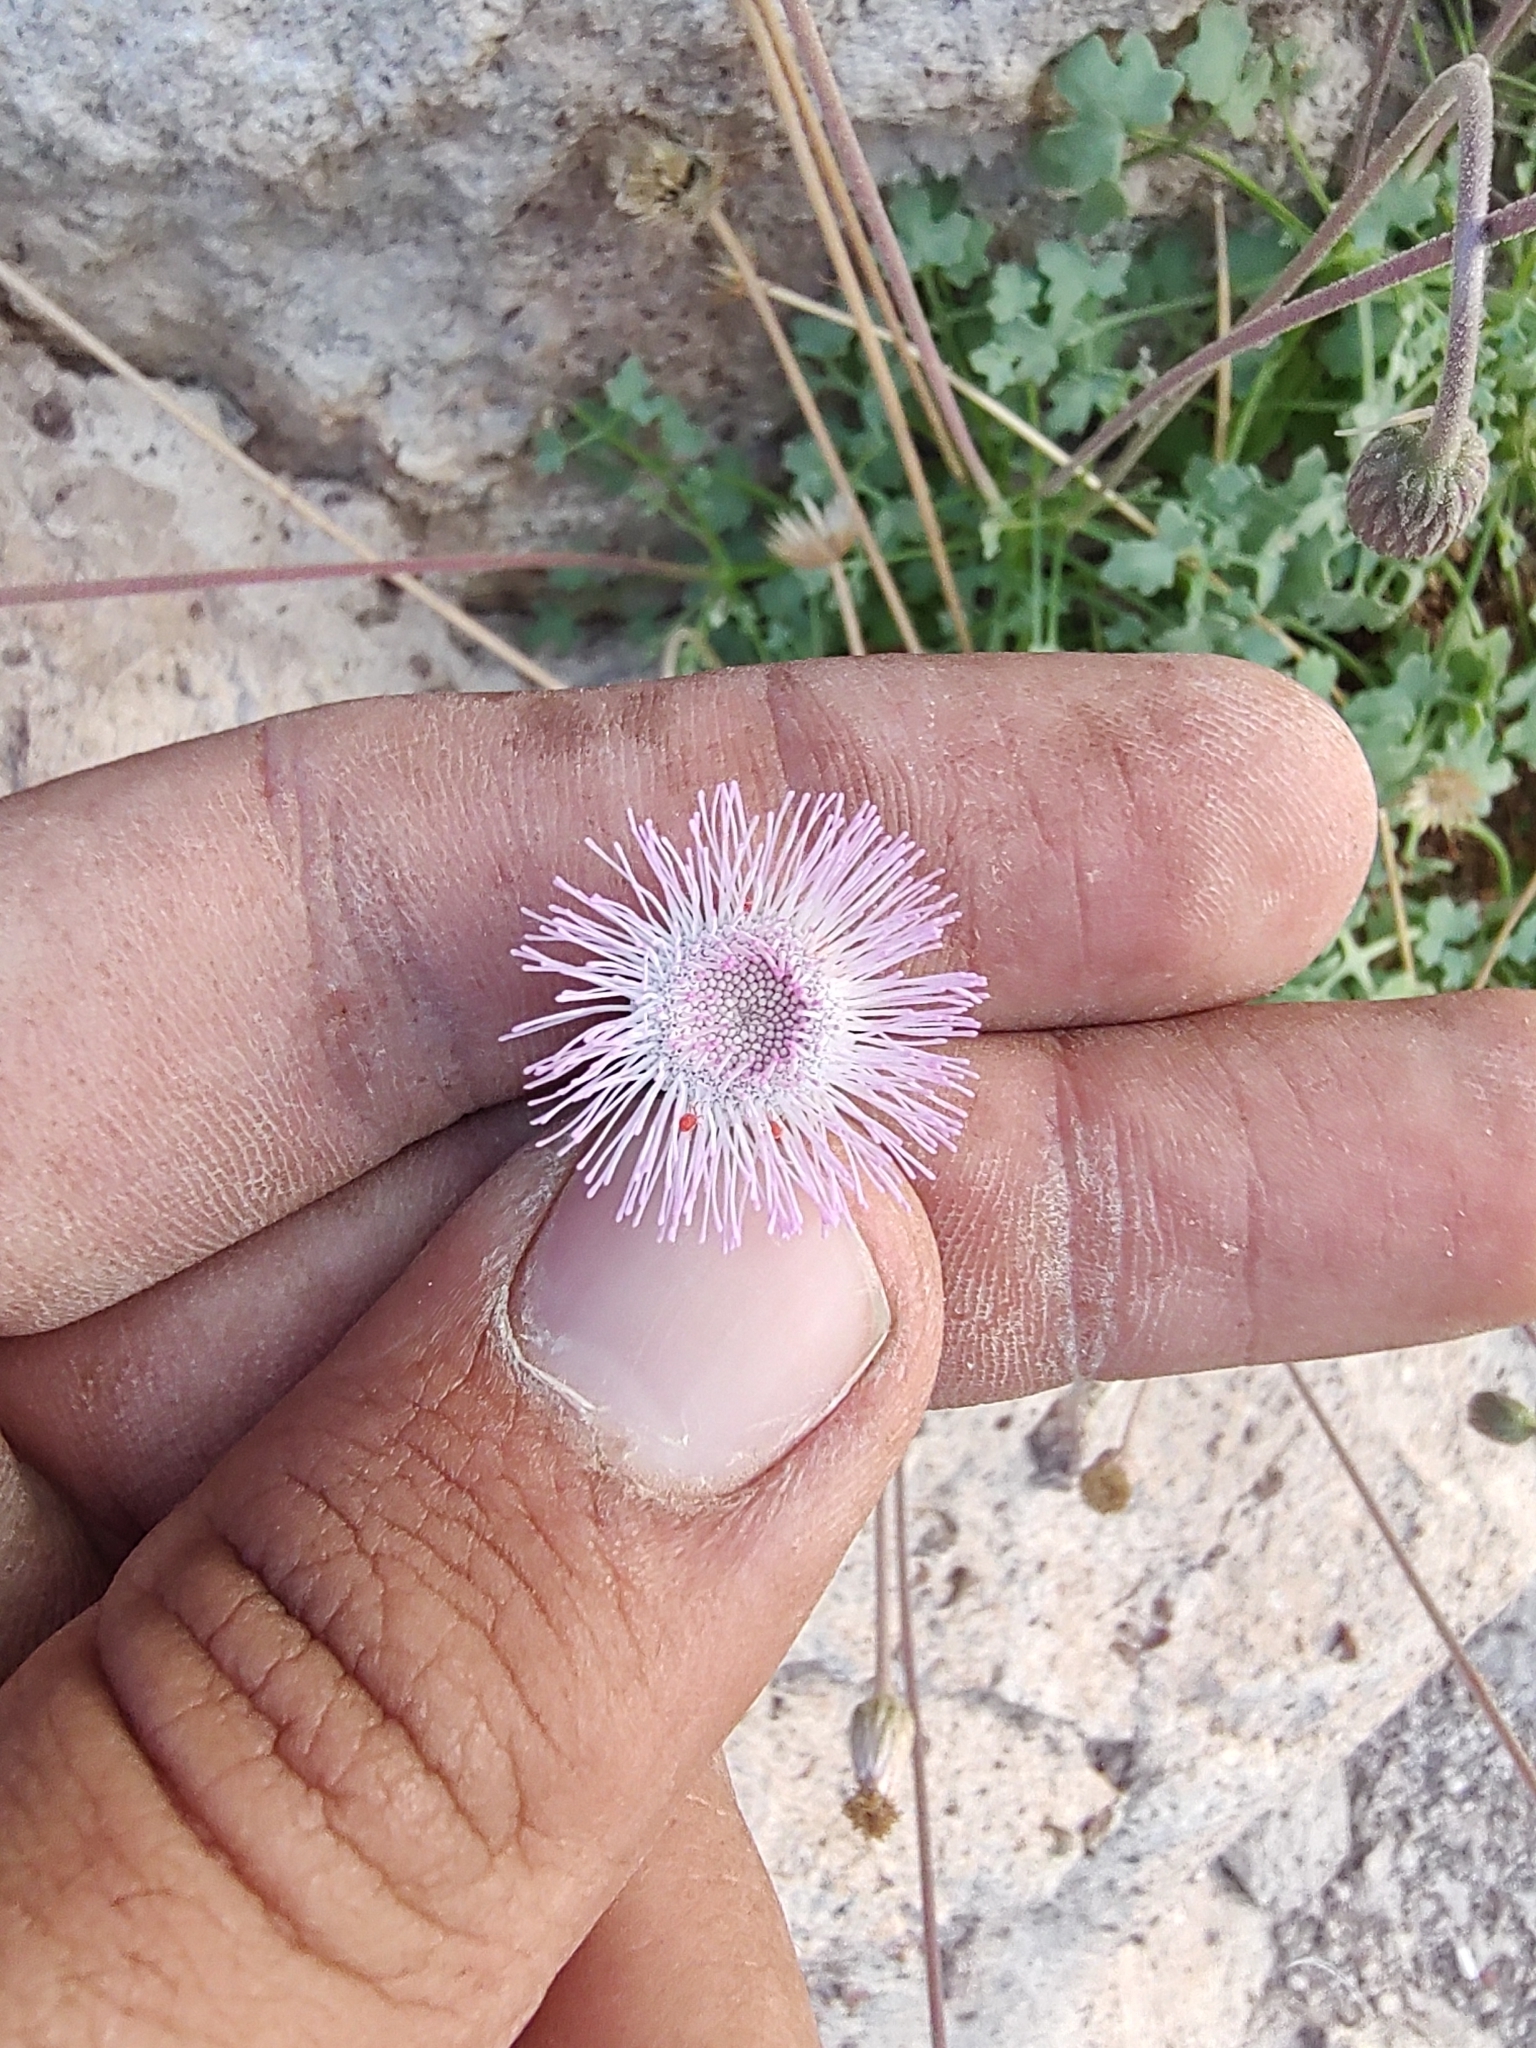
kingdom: Plantae
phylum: Tracheophyta
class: Magnoliopsida
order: Asterales
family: Asteraceae
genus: Hofmeisteria
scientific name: Hofmeisteria fasciculata
